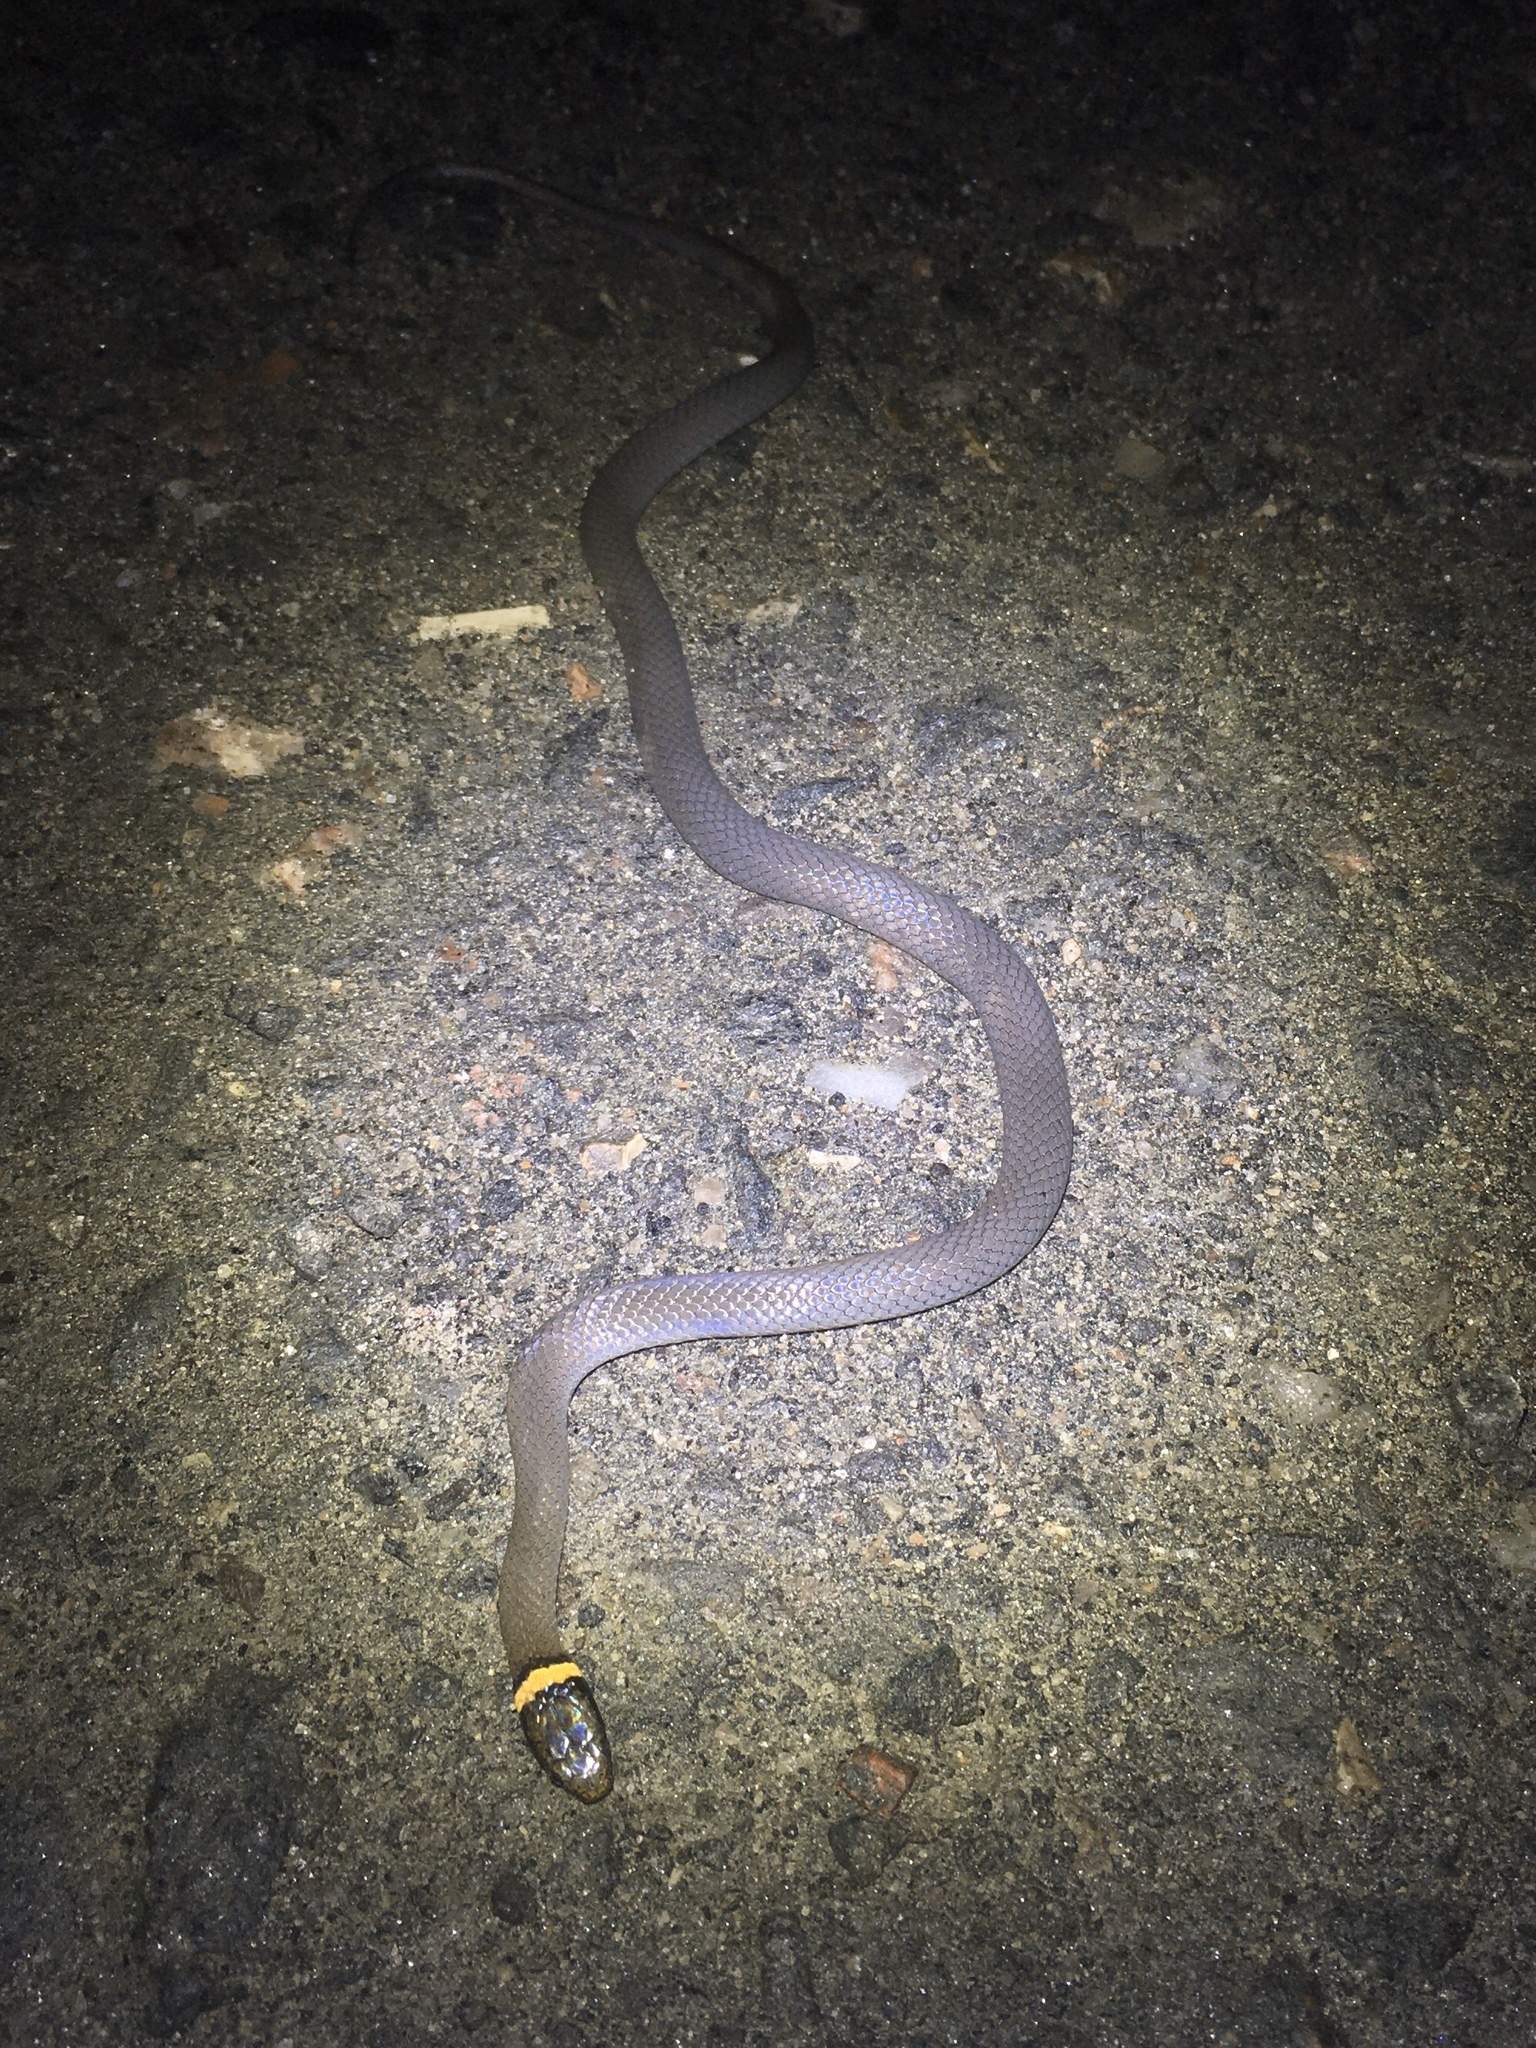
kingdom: Animalia
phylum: Chordata
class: Squamata
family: Colubridae
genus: Diadophis
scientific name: Diadophis punctatus
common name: Ringneck snake
